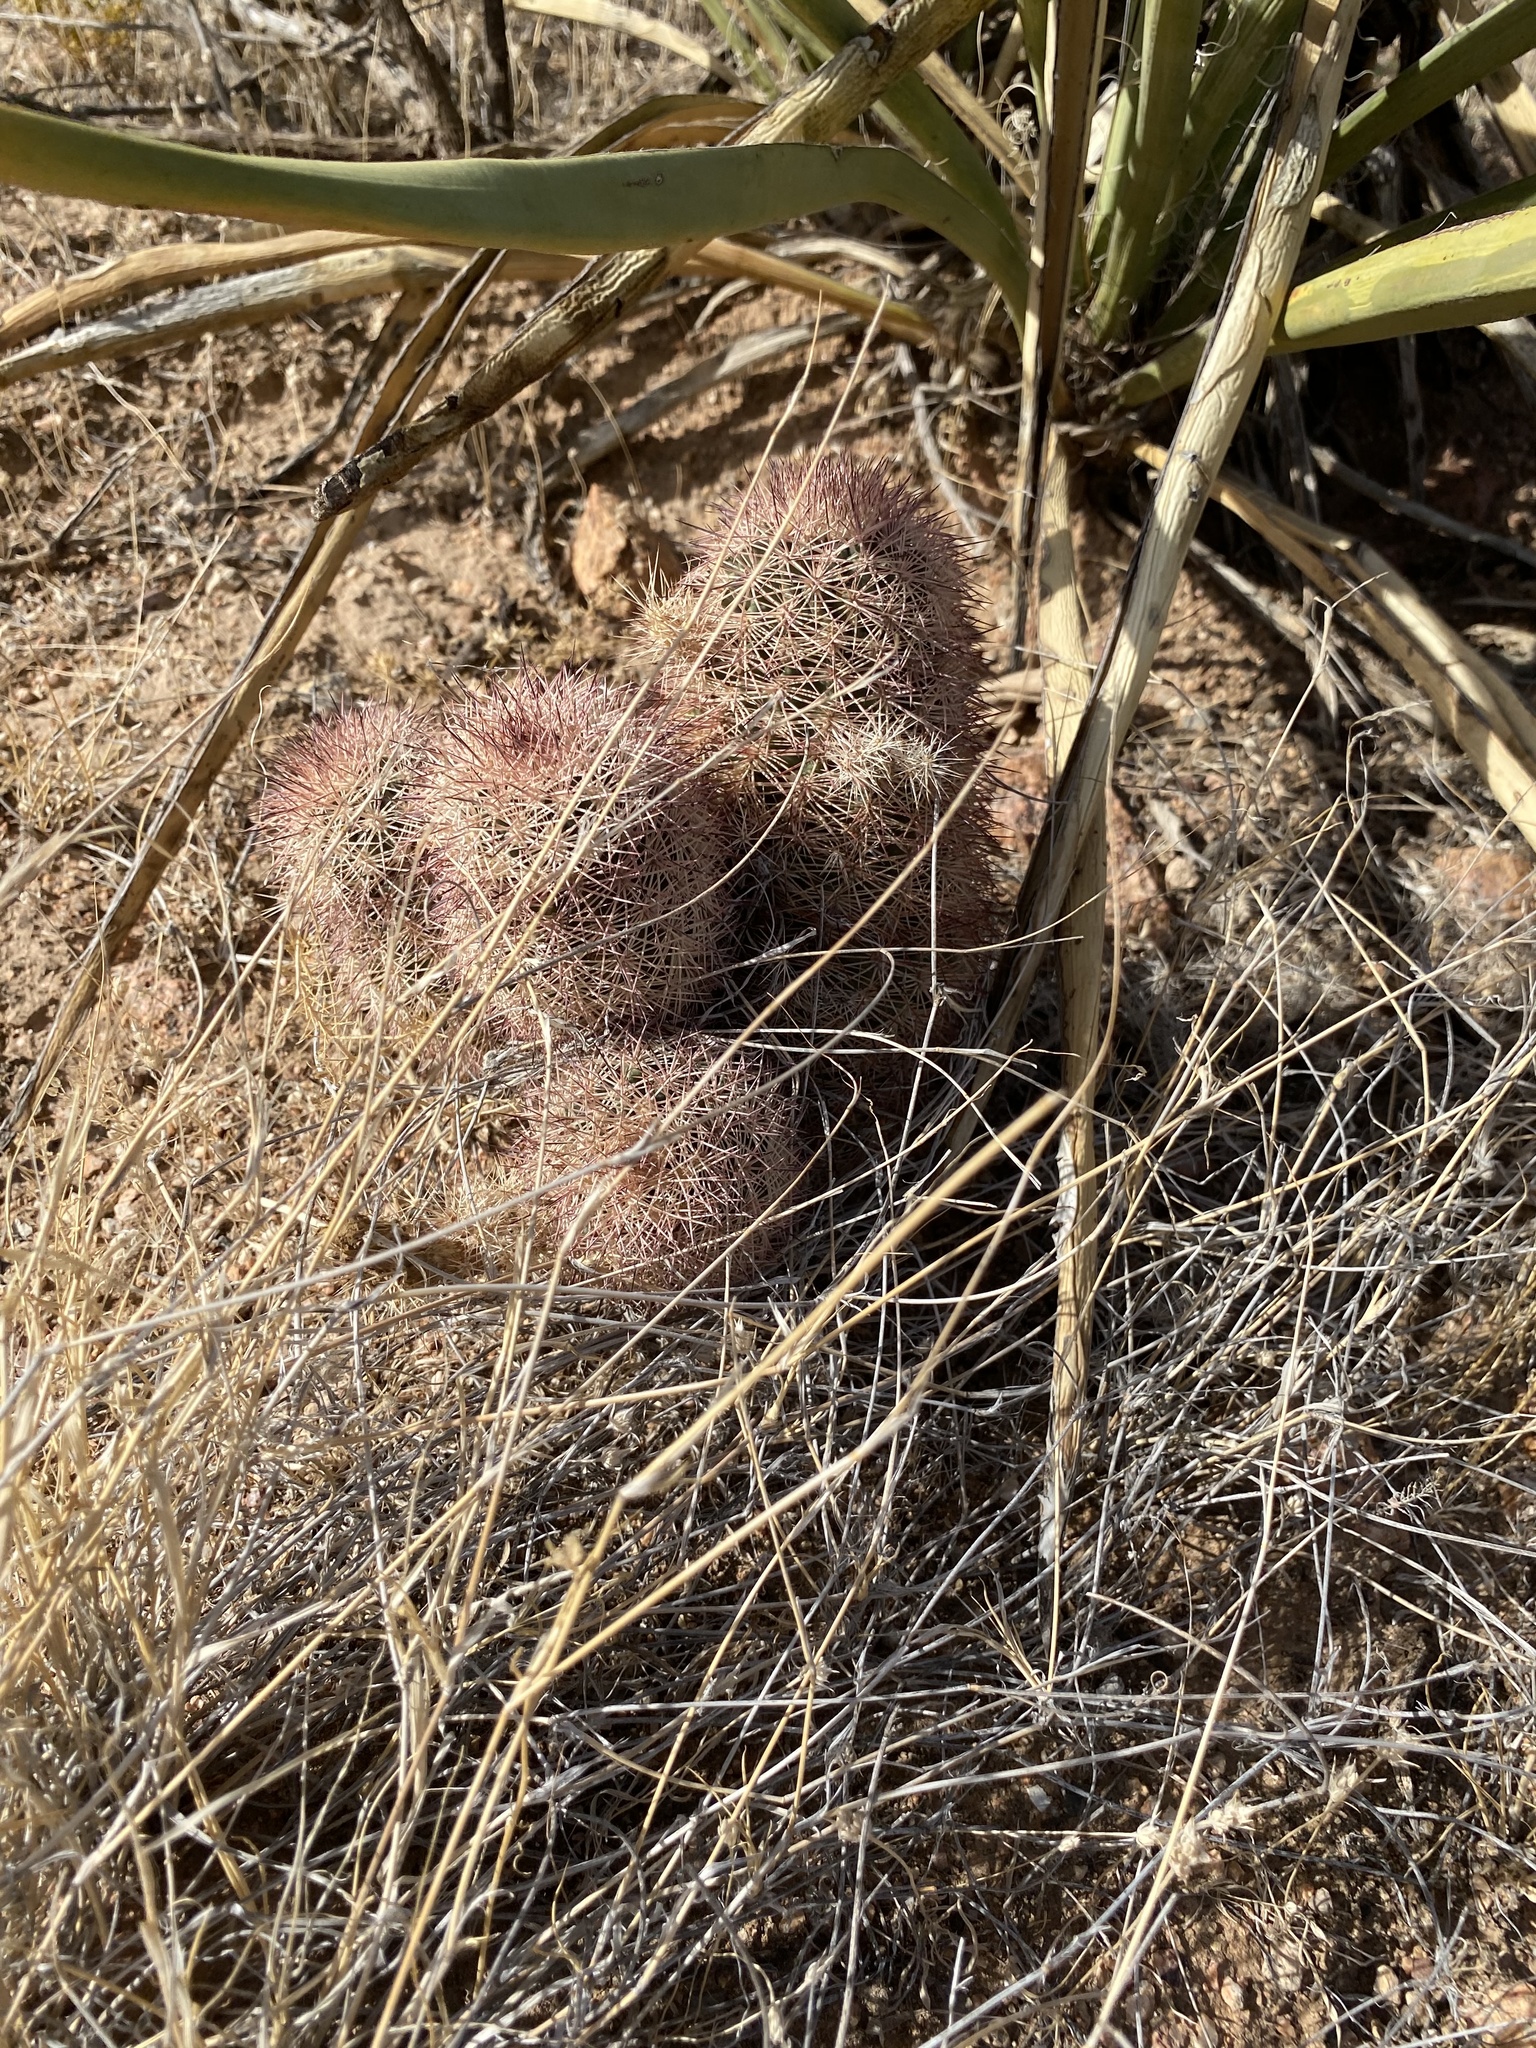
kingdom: Plantae
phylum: Tracheophyta
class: Magnoliopsida
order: Caryophyllales
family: Cactaceae
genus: Echinocereus
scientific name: Echinocereus dasyacanthus
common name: Spiny hedgehog cactus
